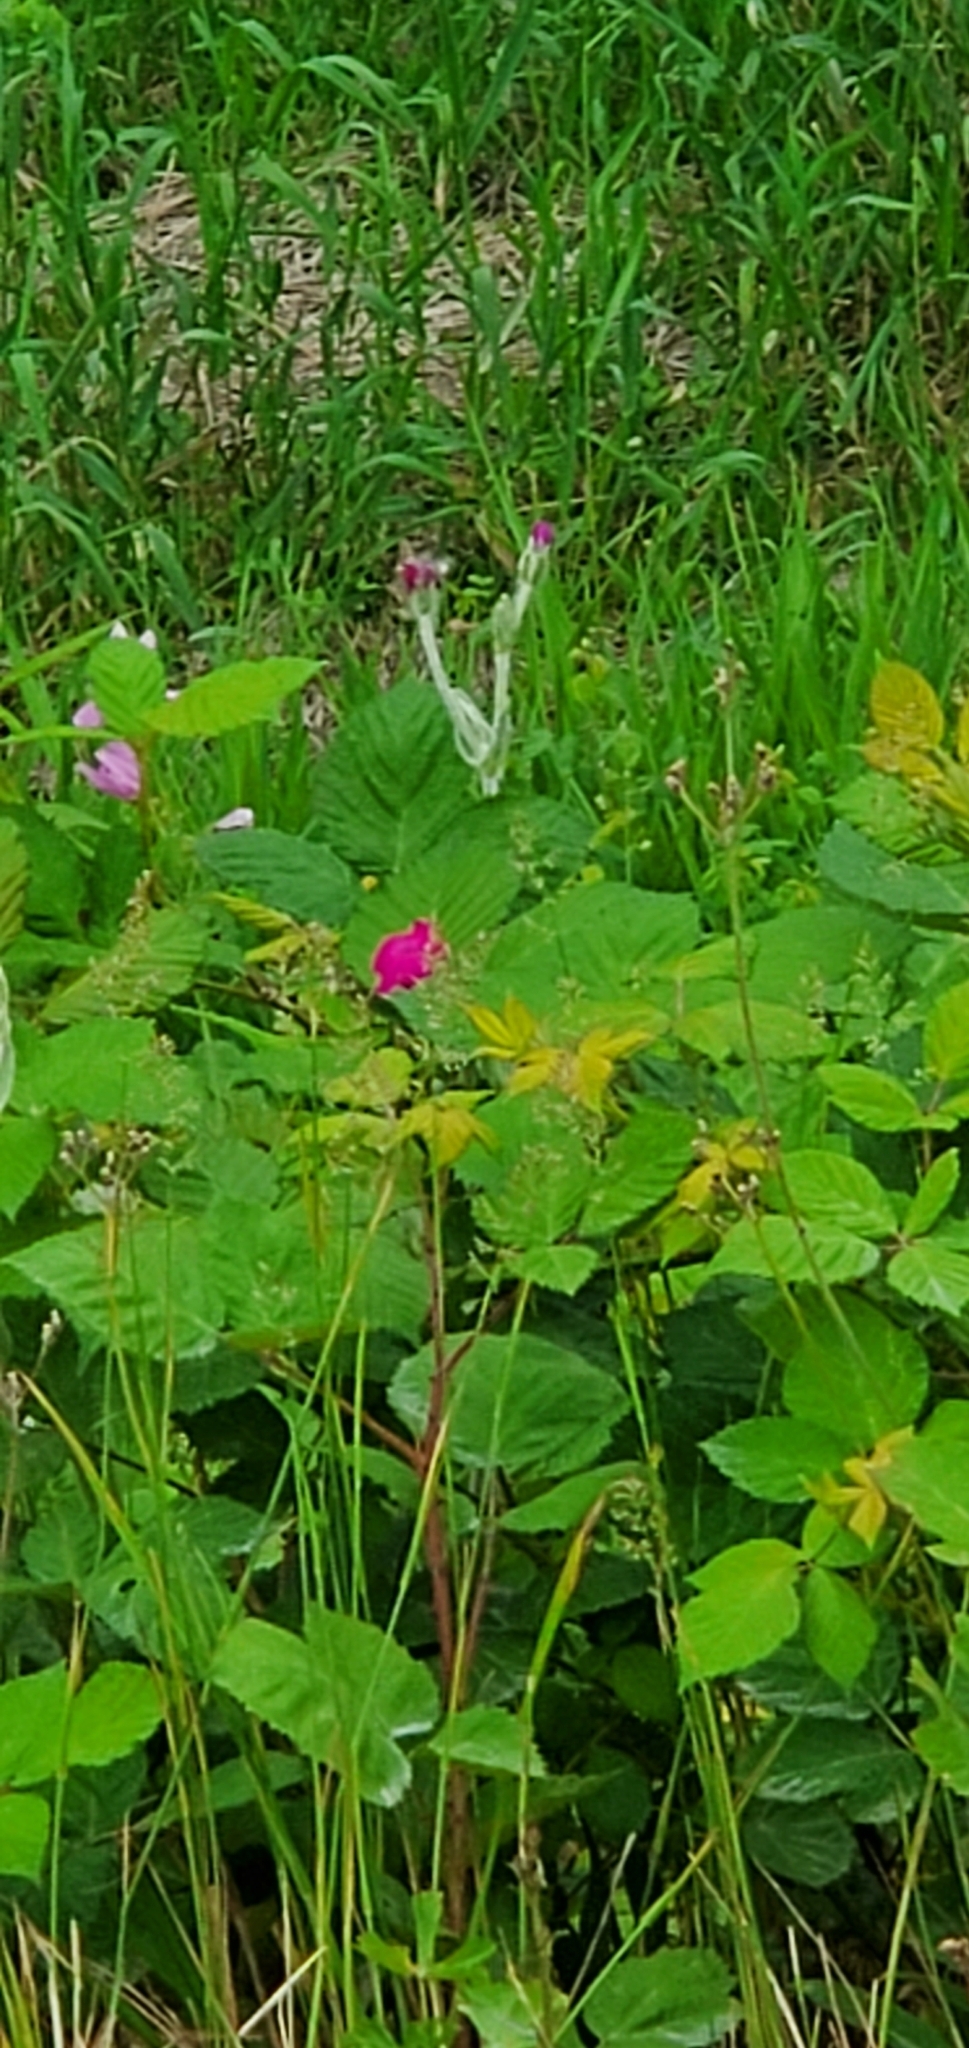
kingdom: Plantae
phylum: Tracheophyta
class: Magnoliopsida
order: Caryophyllales
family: Caryophyllaceae
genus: Silene
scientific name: Silene coronaria
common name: Rose campion
